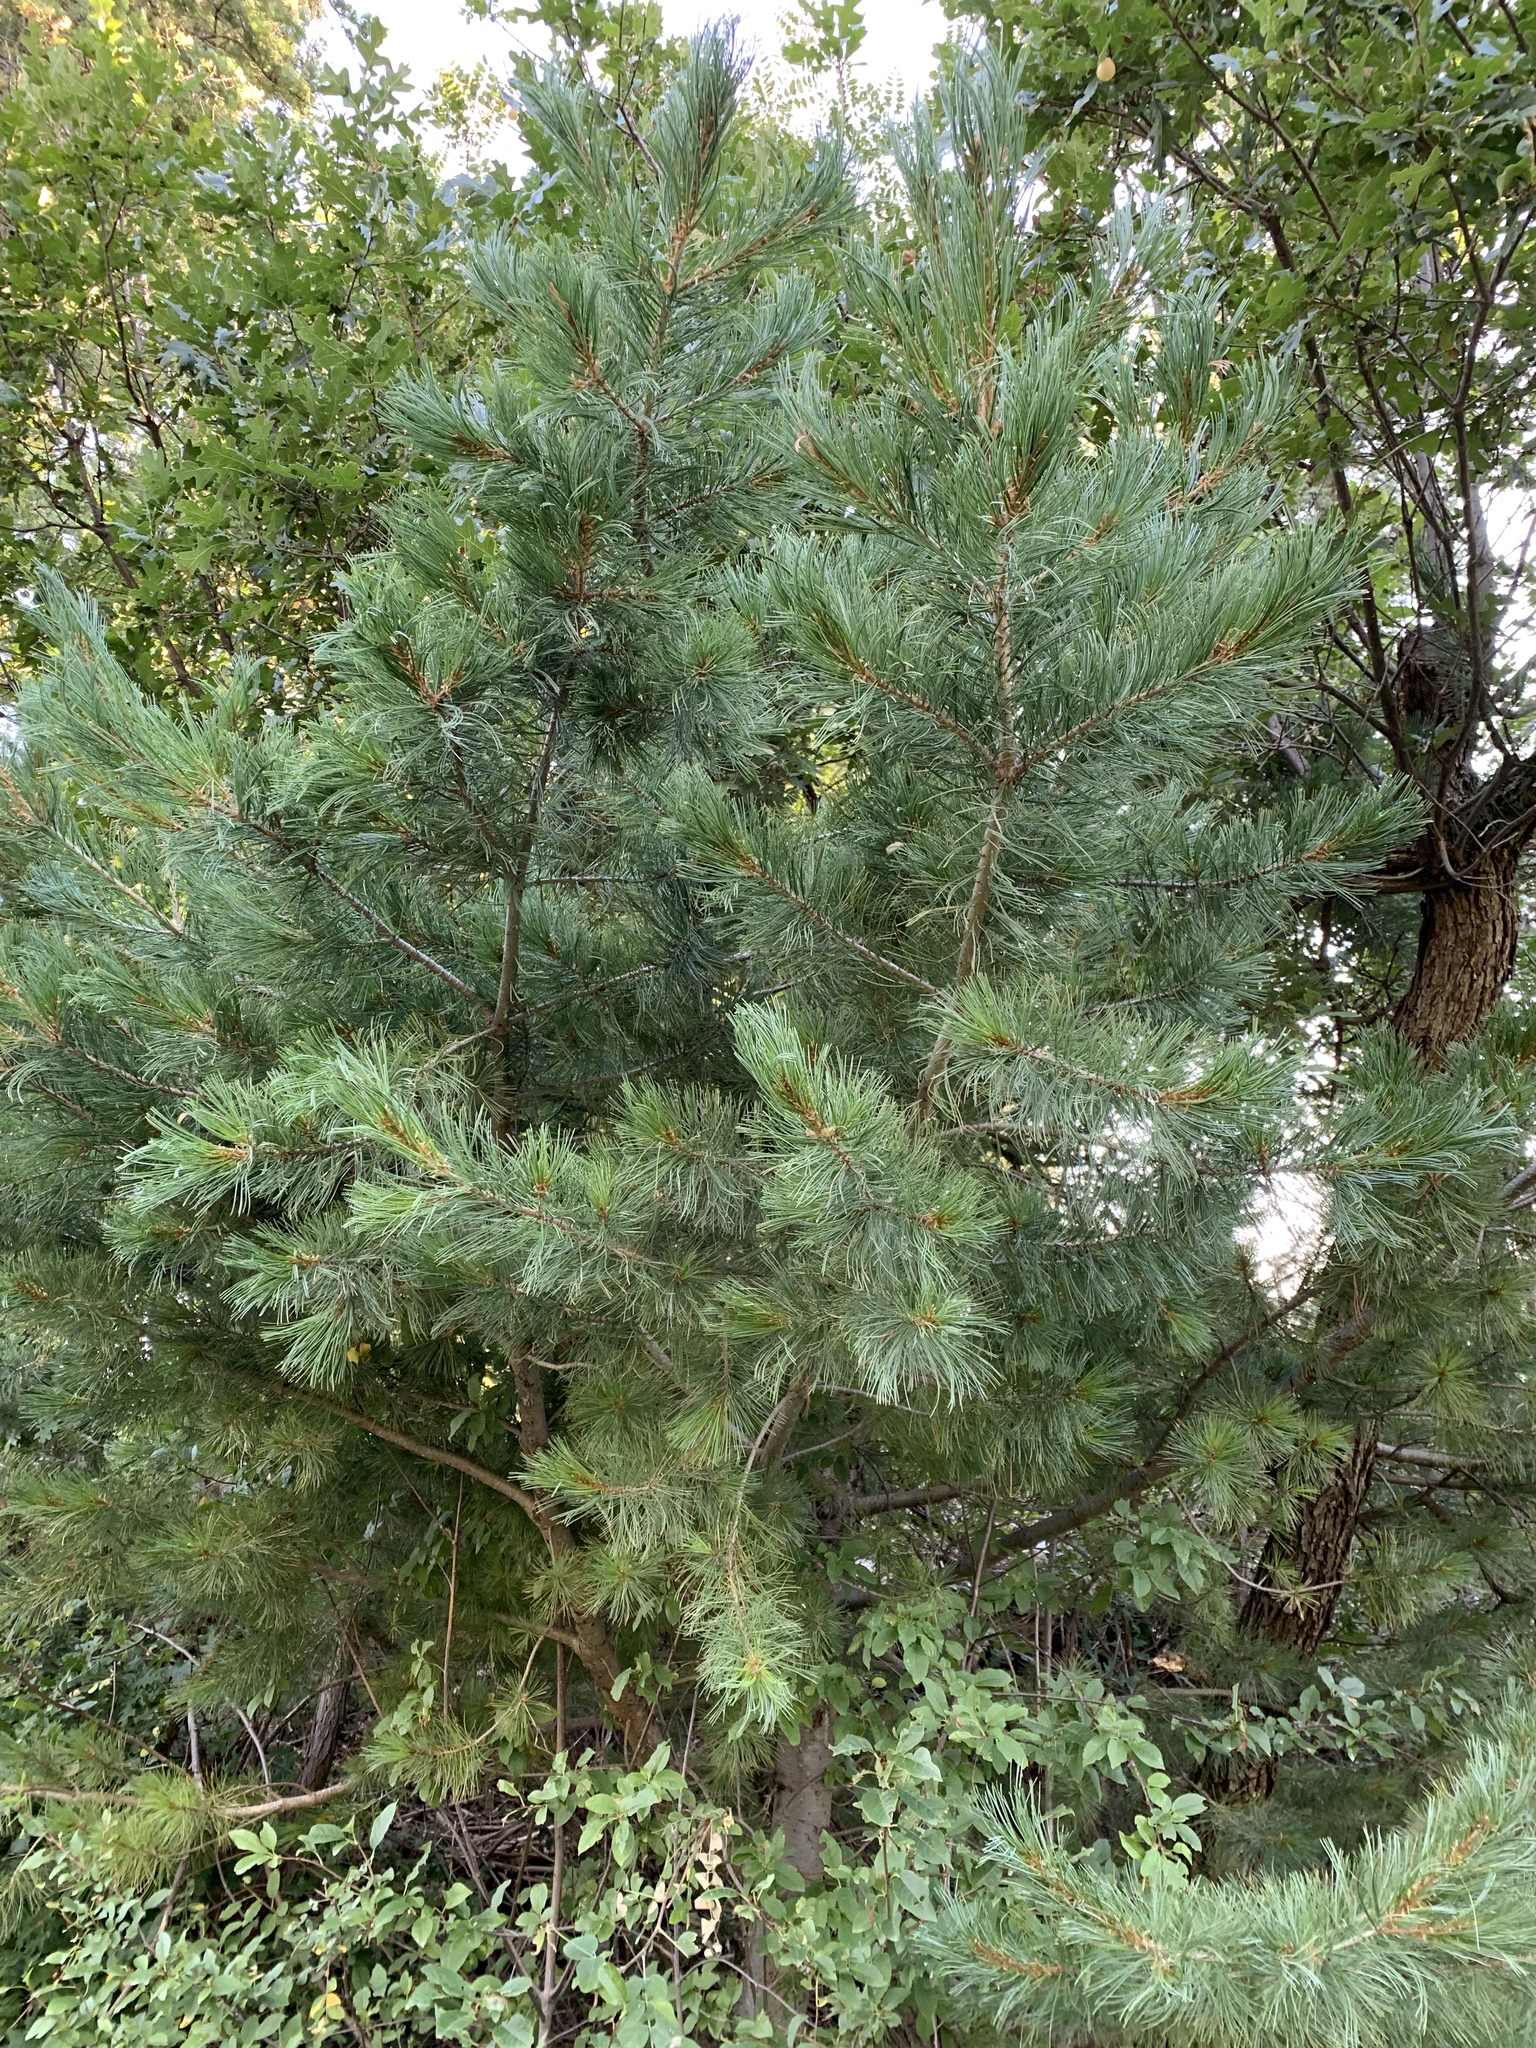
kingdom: Plantae
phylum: Tracheophyta
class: Pinopsida
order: Pinales
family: Pinaceae
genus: Pinus
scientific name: Pinus strobiformis
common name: Southwestern white pine
